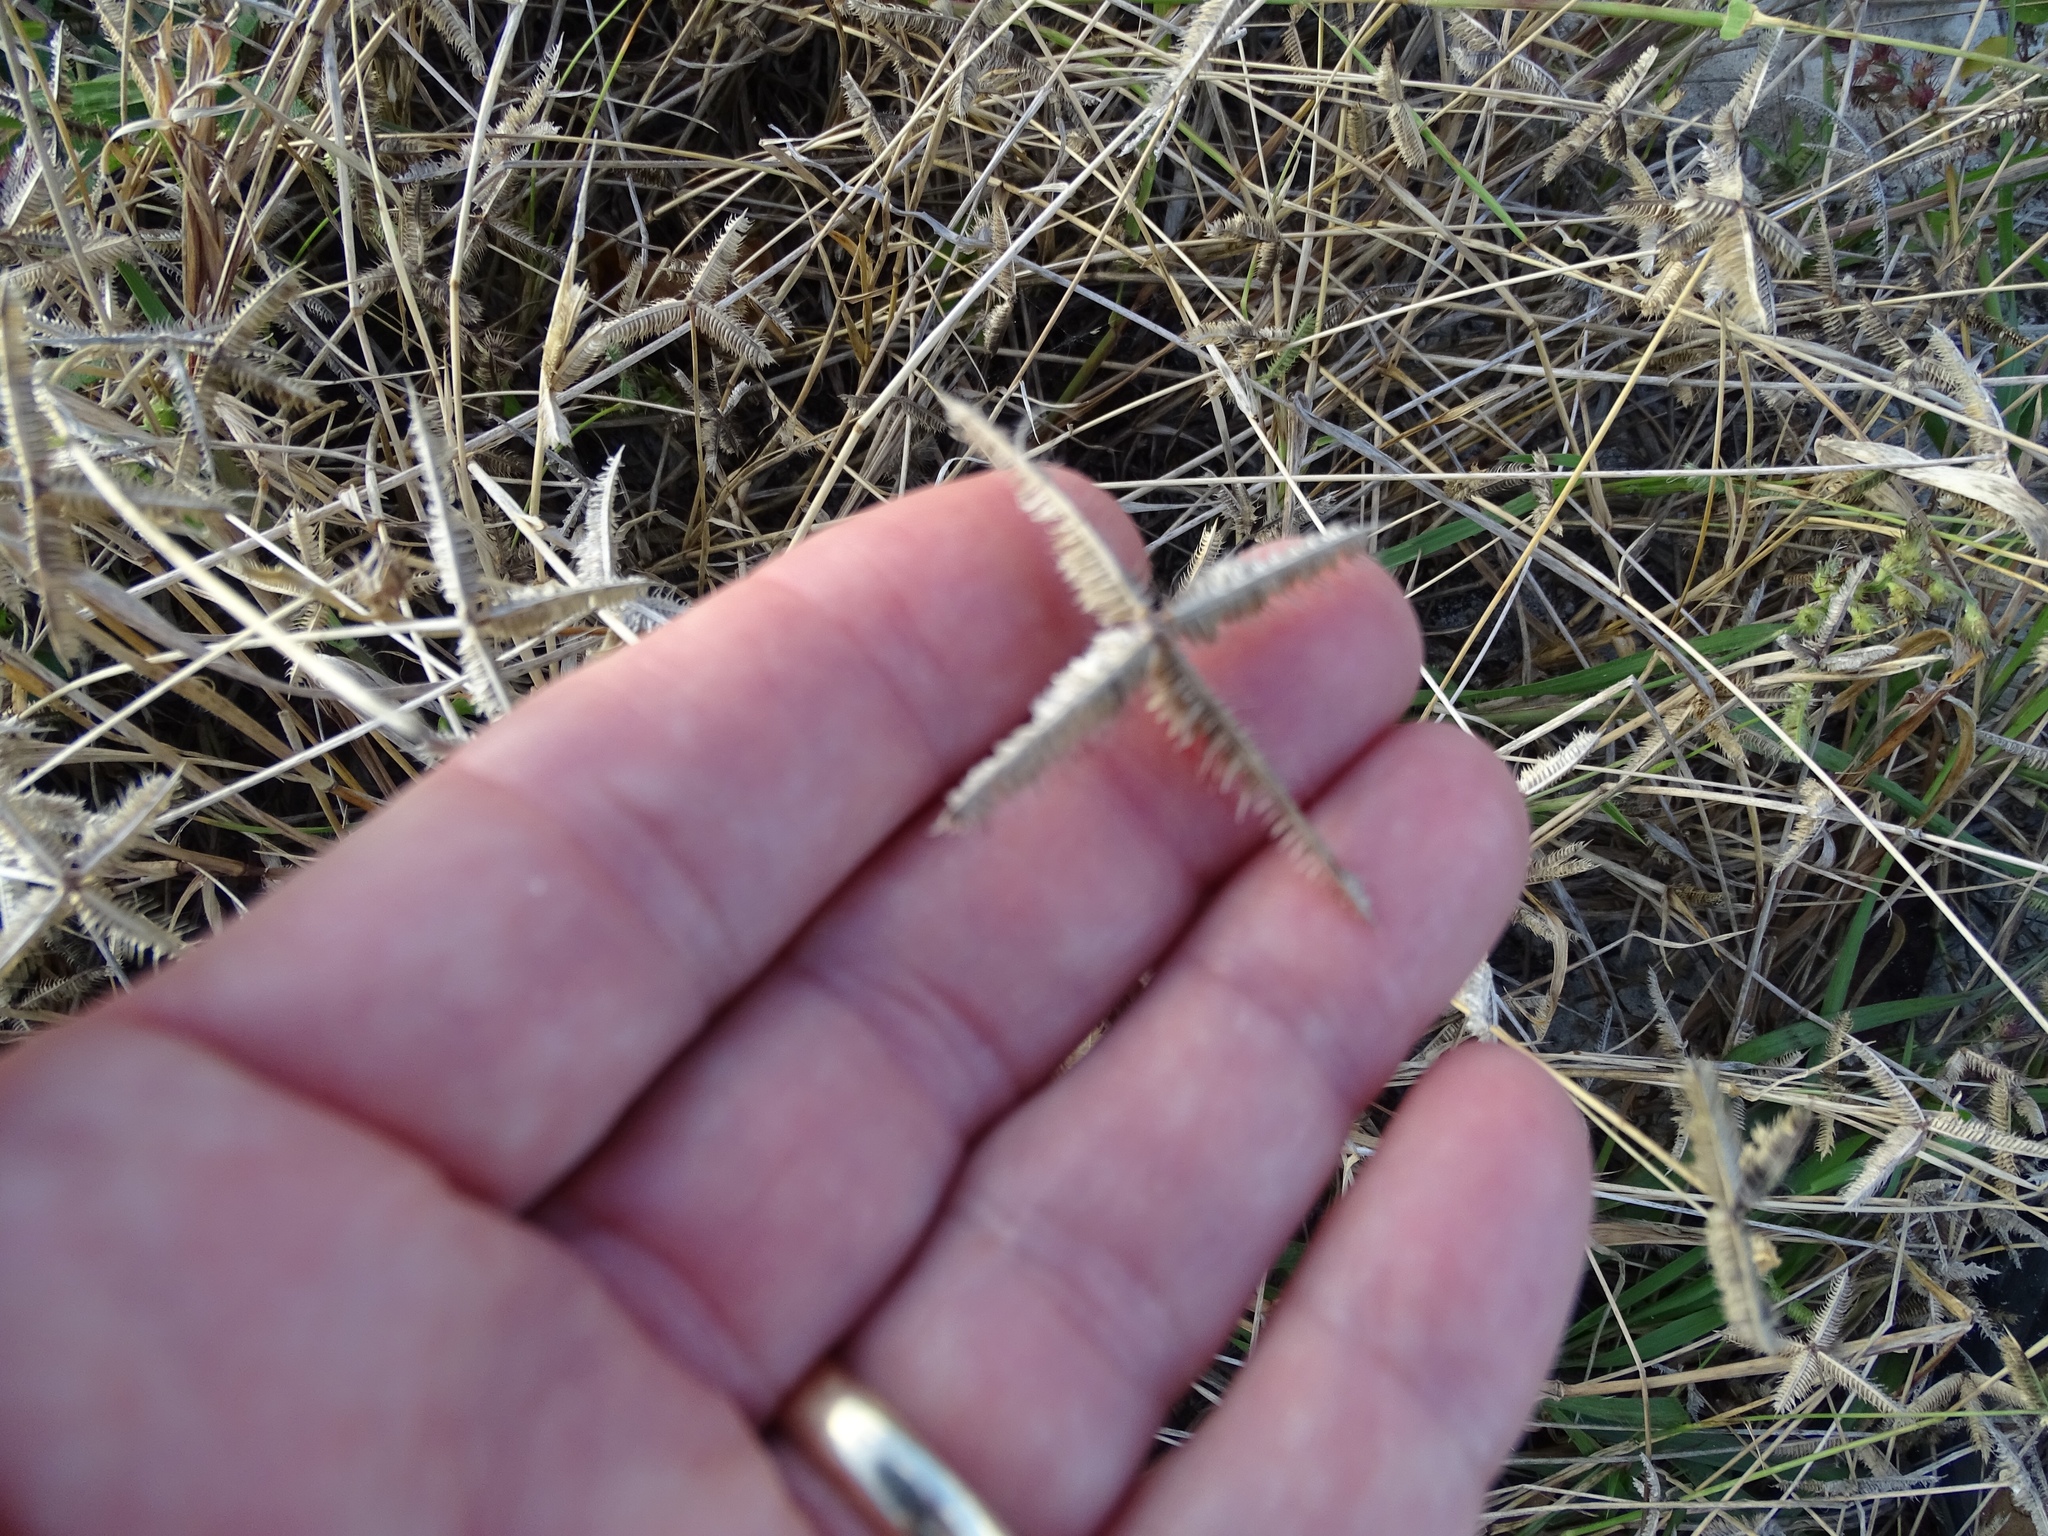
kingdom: Plantae
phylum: Tracheophyta
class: Liliopsida
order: Poales
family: Poaceae
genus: Dactyloctenium
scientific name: Dactyloctenium aegyptium
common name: Egyptian grass
